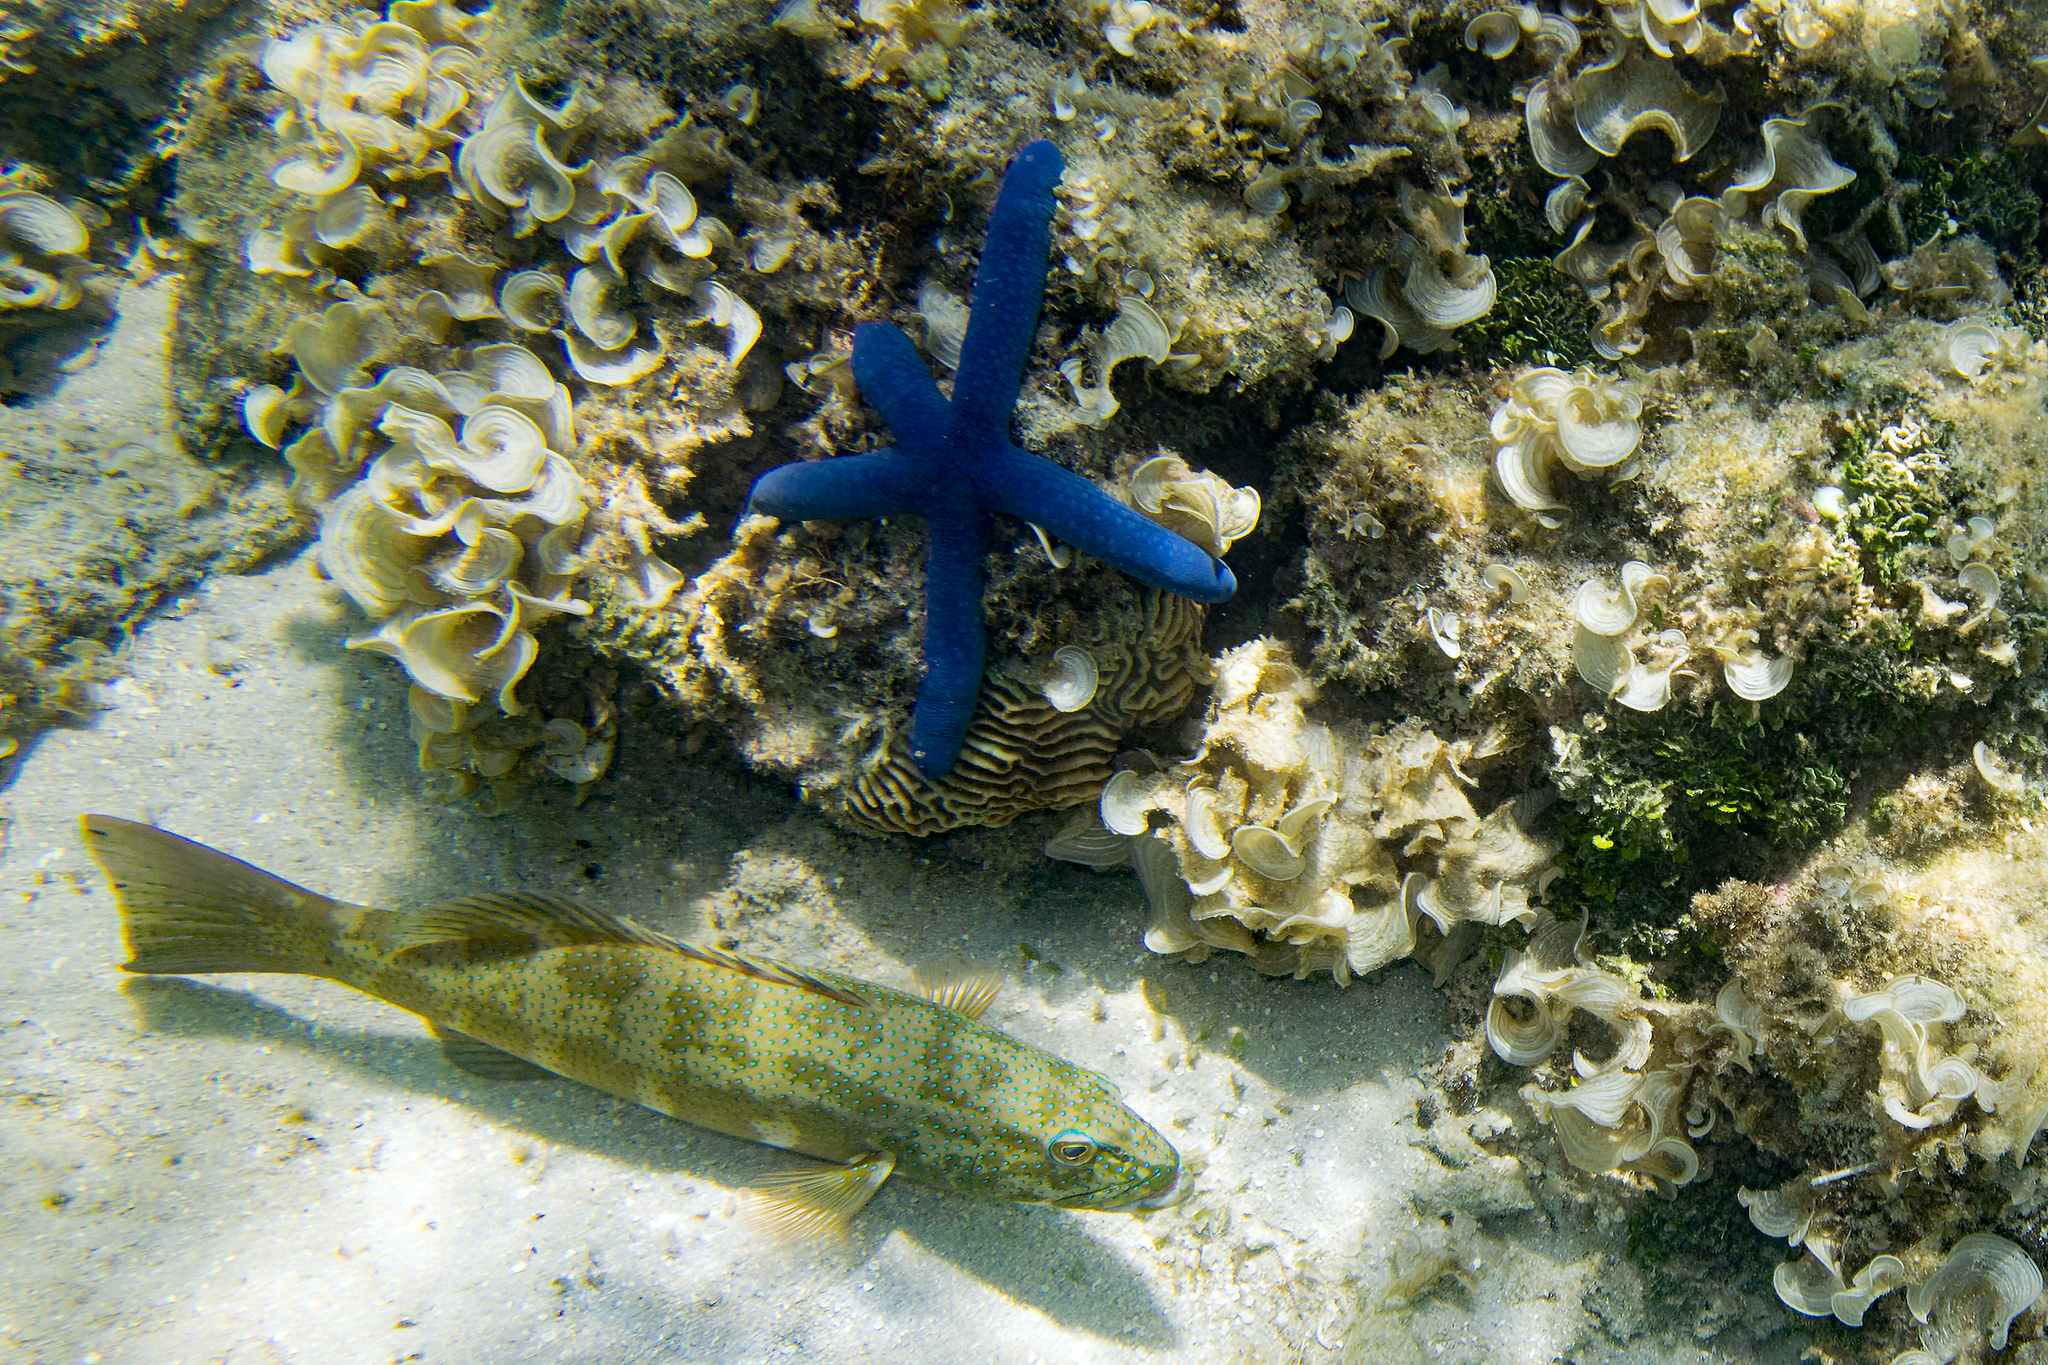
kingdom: Animalia
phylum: Chordata
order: Perciformes
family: Serranidae
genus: Plectropomus
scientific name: Plectropomus leopardus
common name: Coral trout
